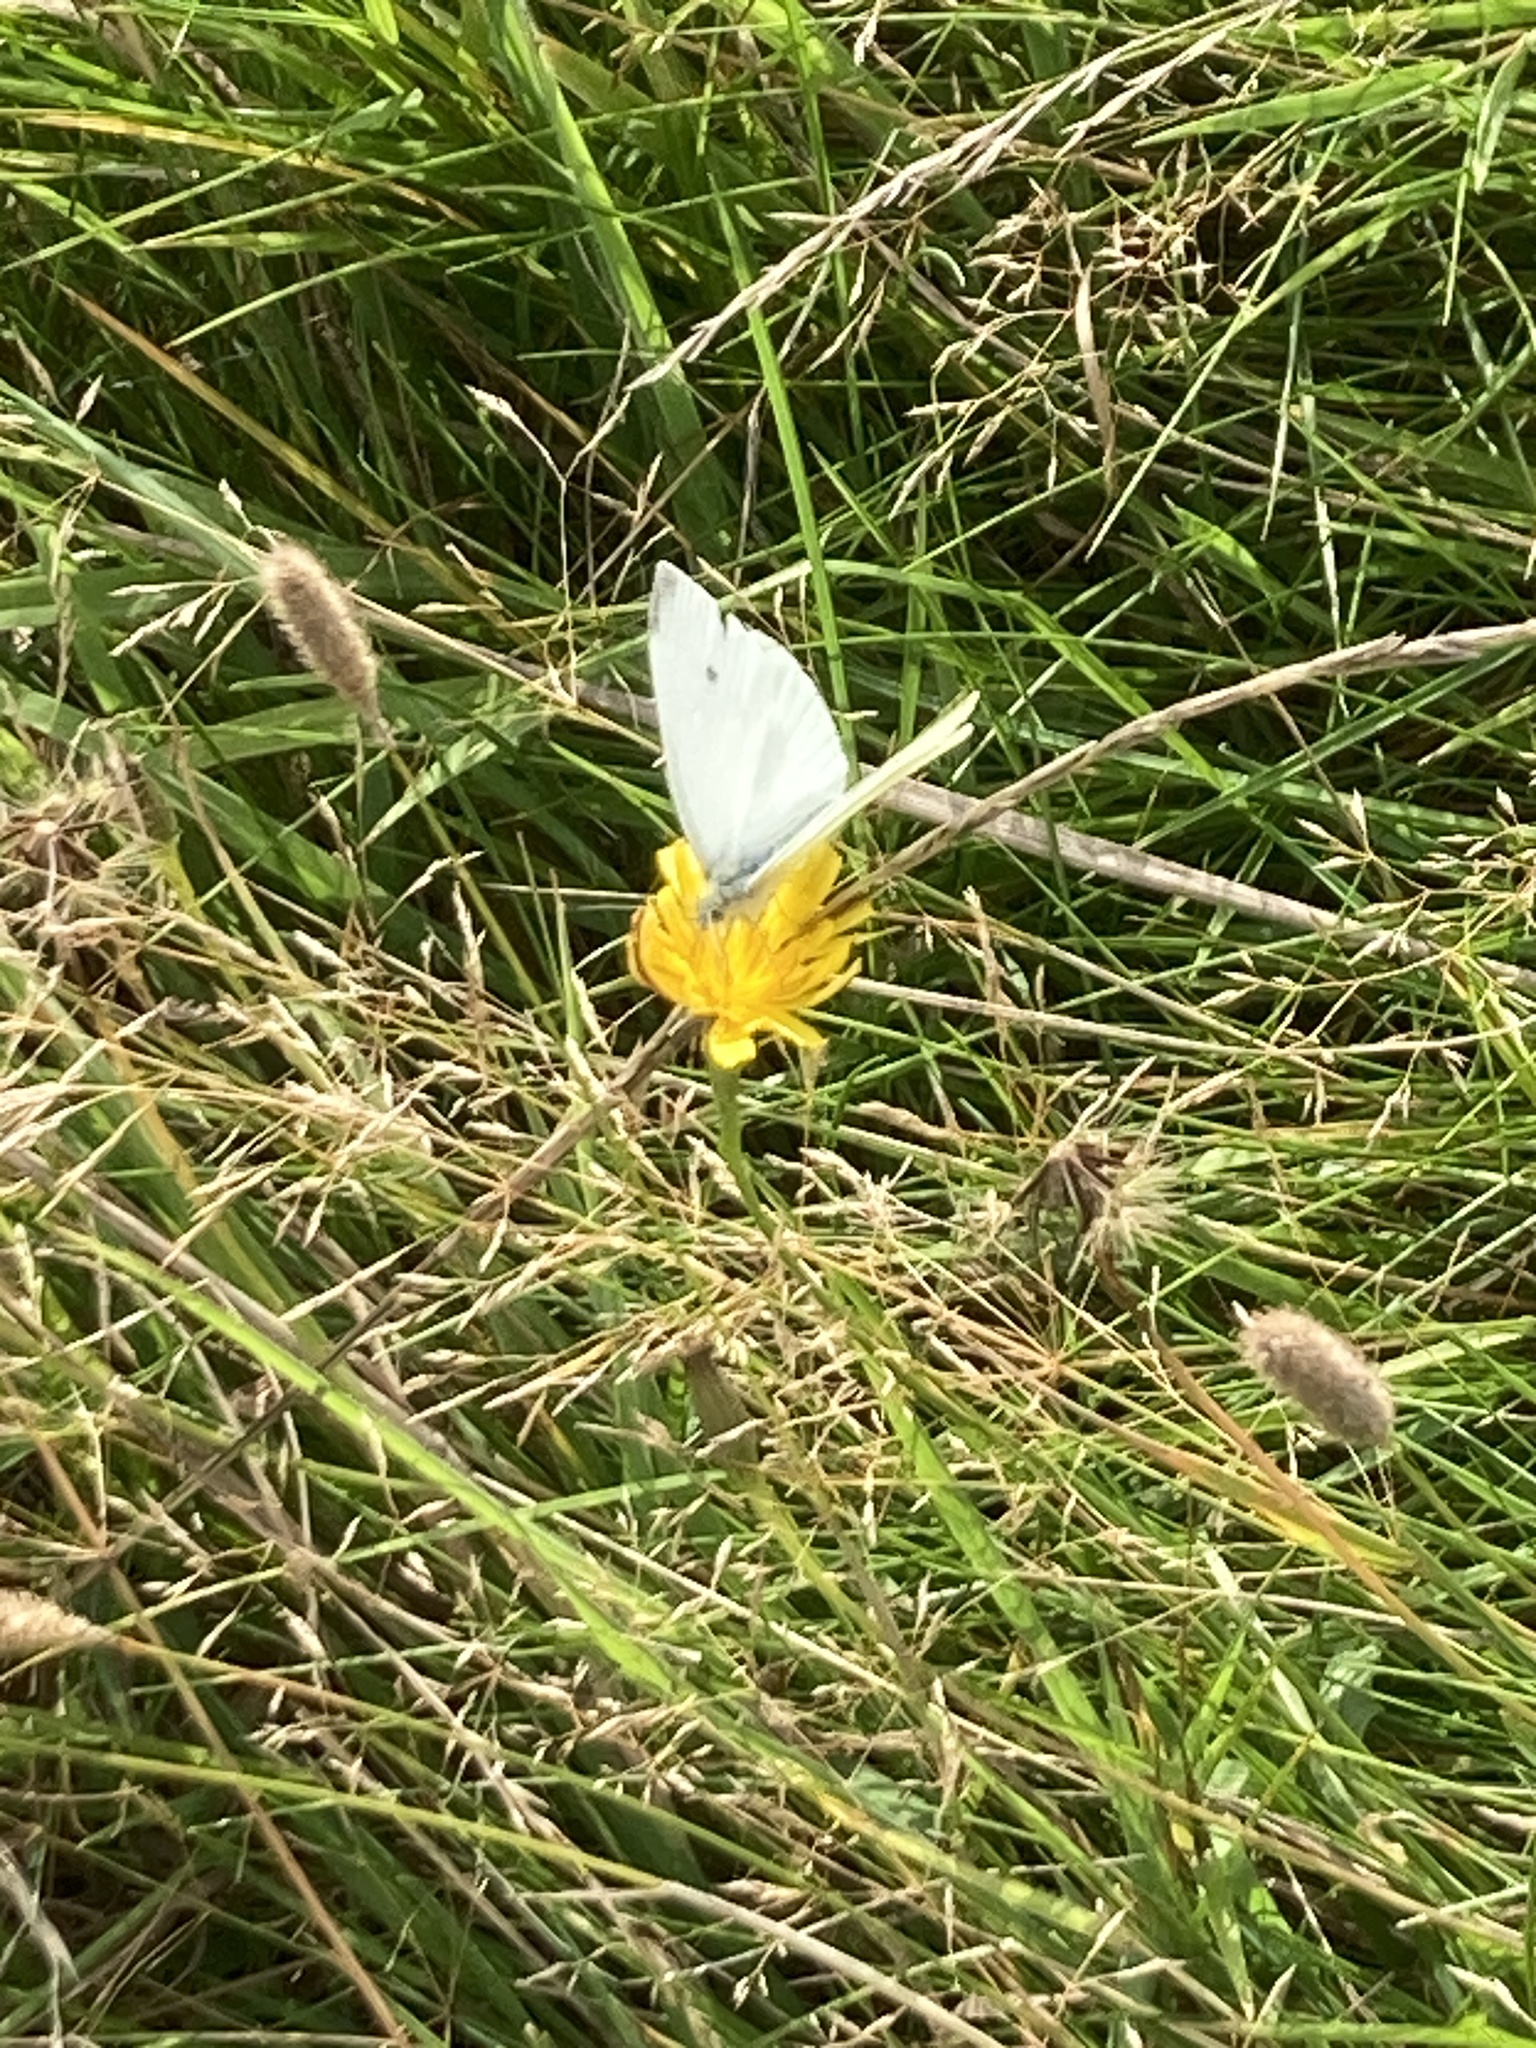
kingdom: Animalia
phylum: Arthropoda
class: Insecta
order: Lepidoptera
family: Pieridae
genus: Pieris
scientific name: Pieris rapae
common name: Small white
